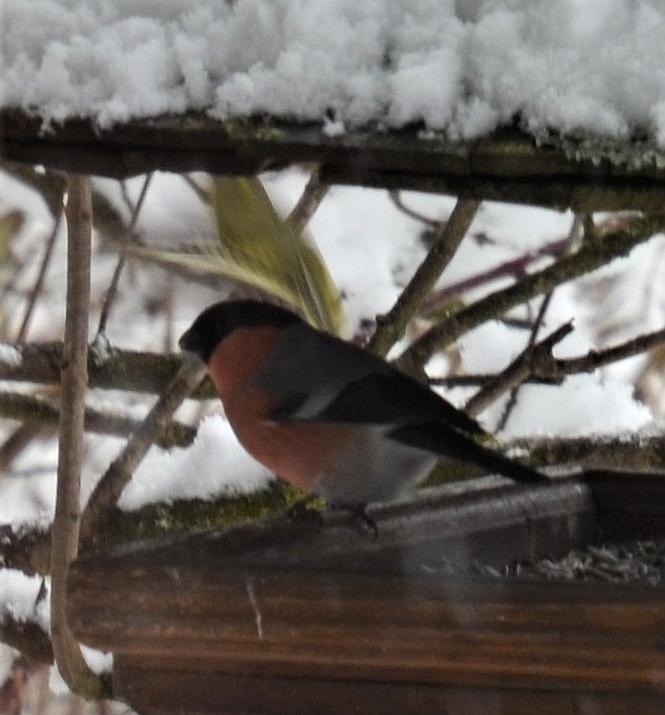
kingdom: Animalia
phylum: Chordata
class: Aves
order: Passeriformes
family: Fringillidae
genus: Pyrrhula
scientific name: Pyrrhula pyrrhula
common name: Eurasian bullfinch
